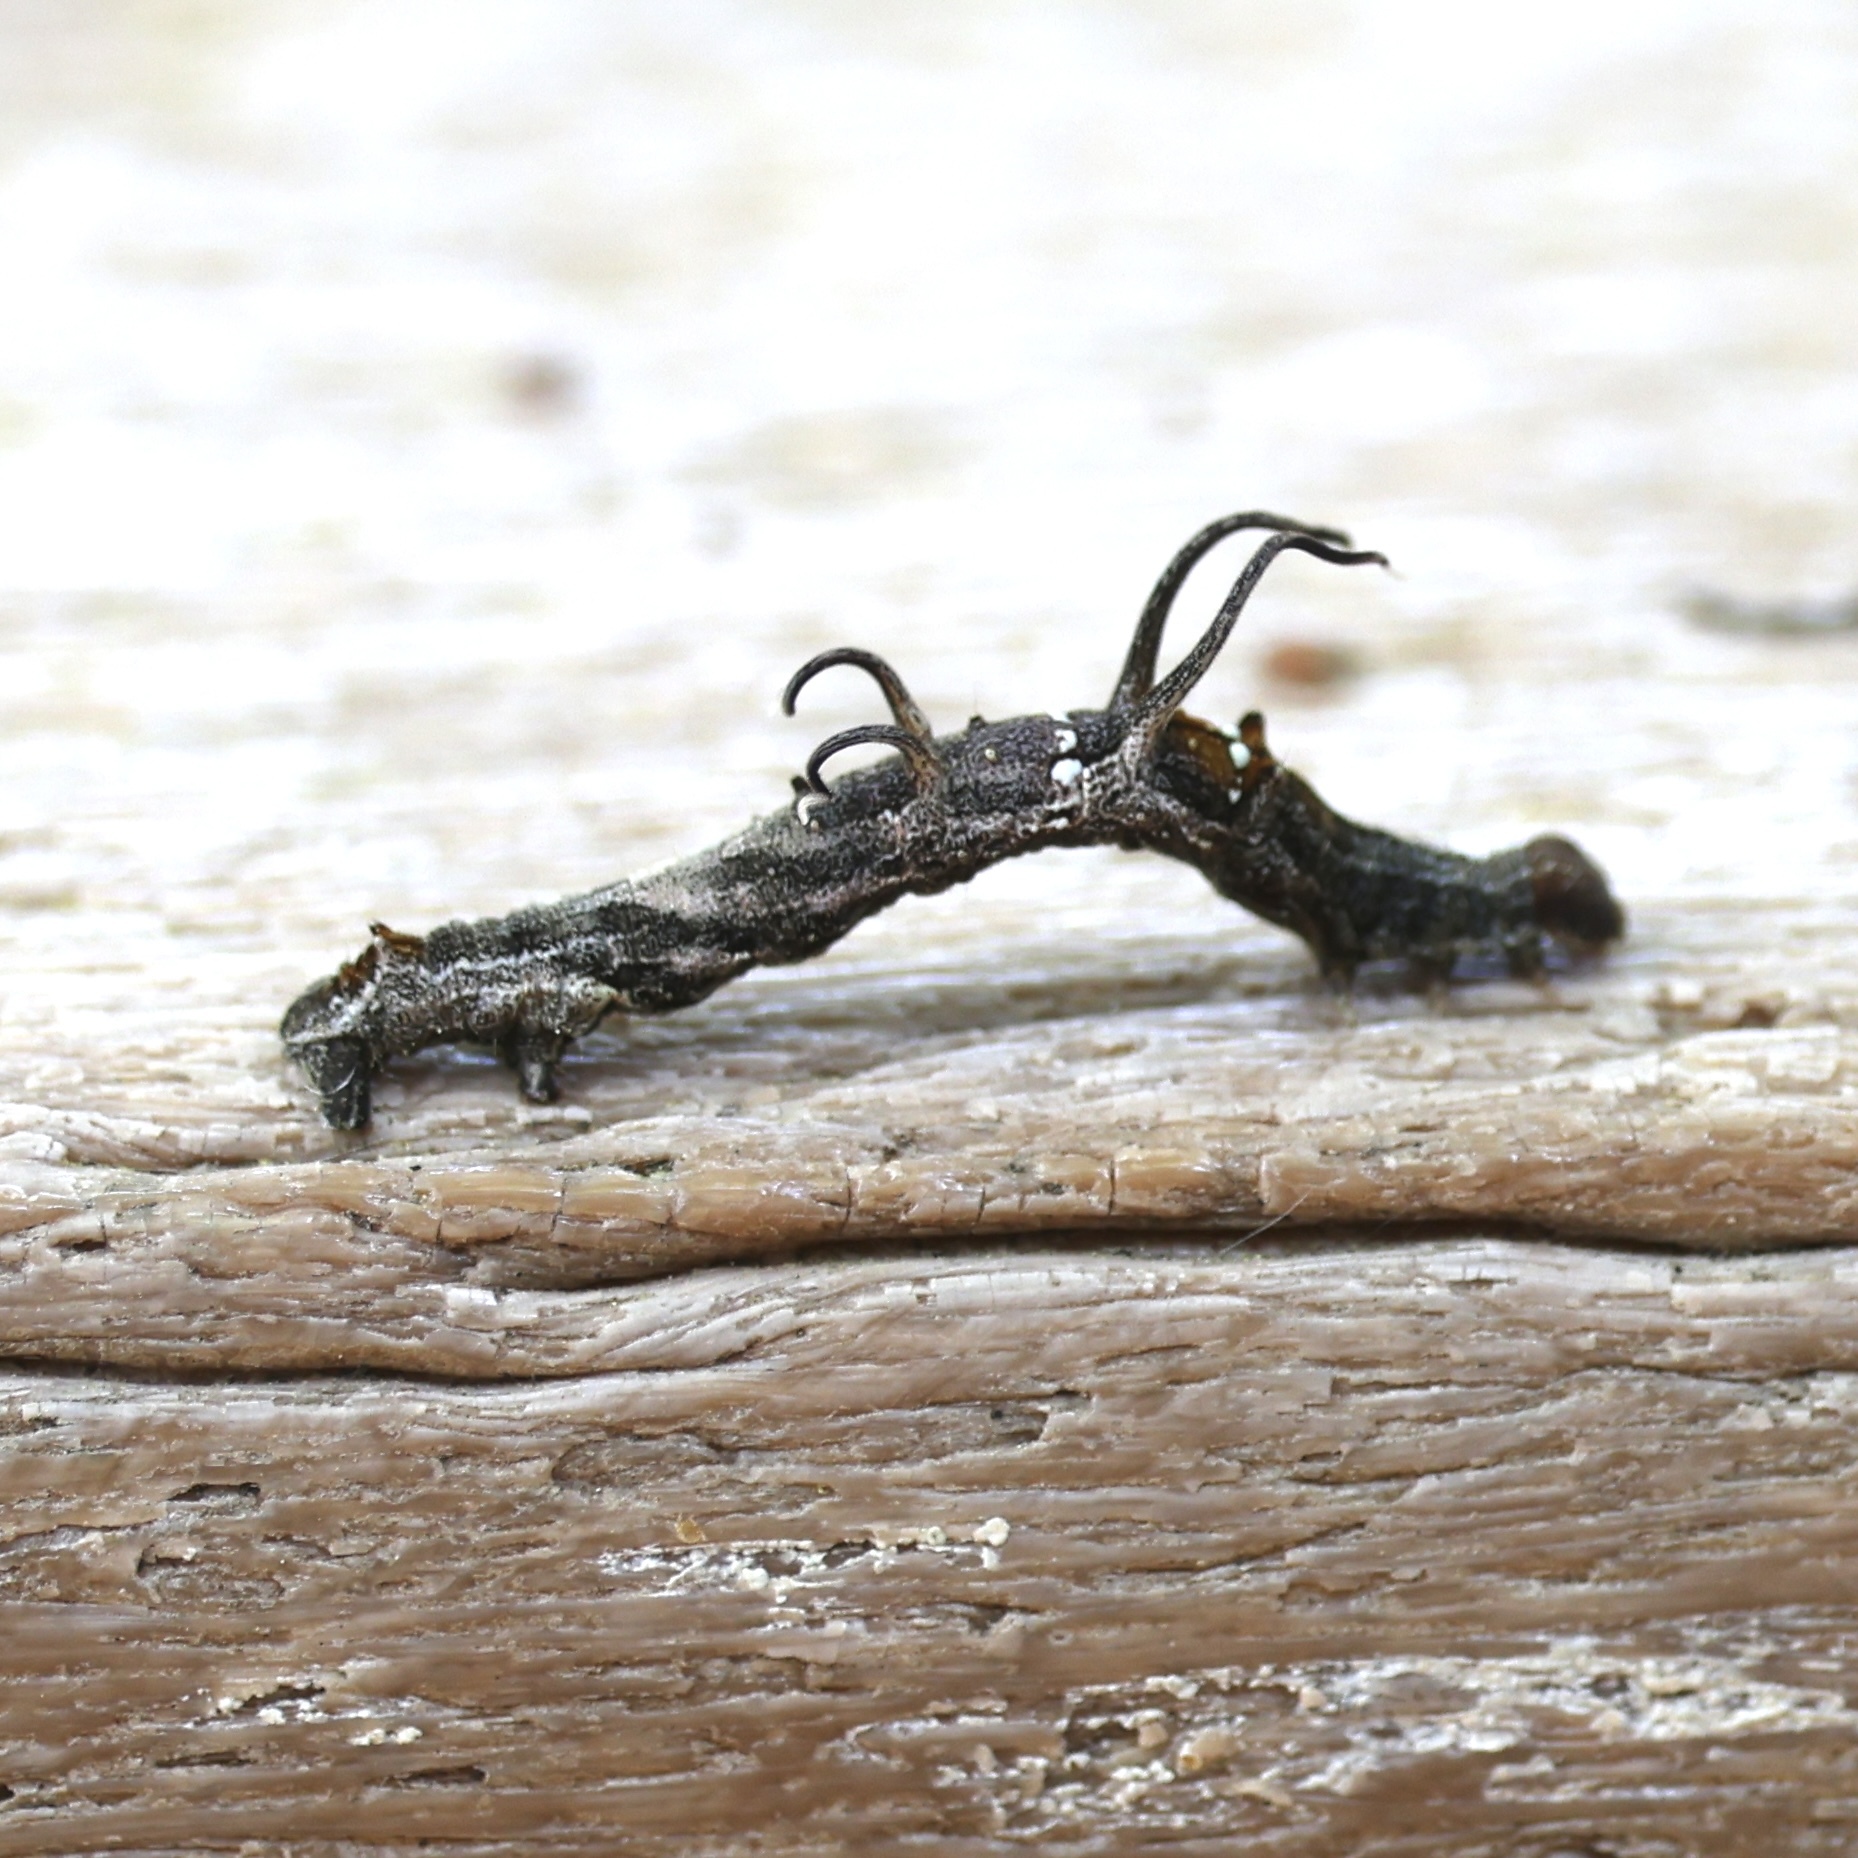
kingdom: Animalia
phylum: Arthropoda
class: Insecta
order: Lepidoptera
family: Geometridae
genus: Nematocampa
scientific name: Nematocampa resistaria
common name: Horned spanworm moth
